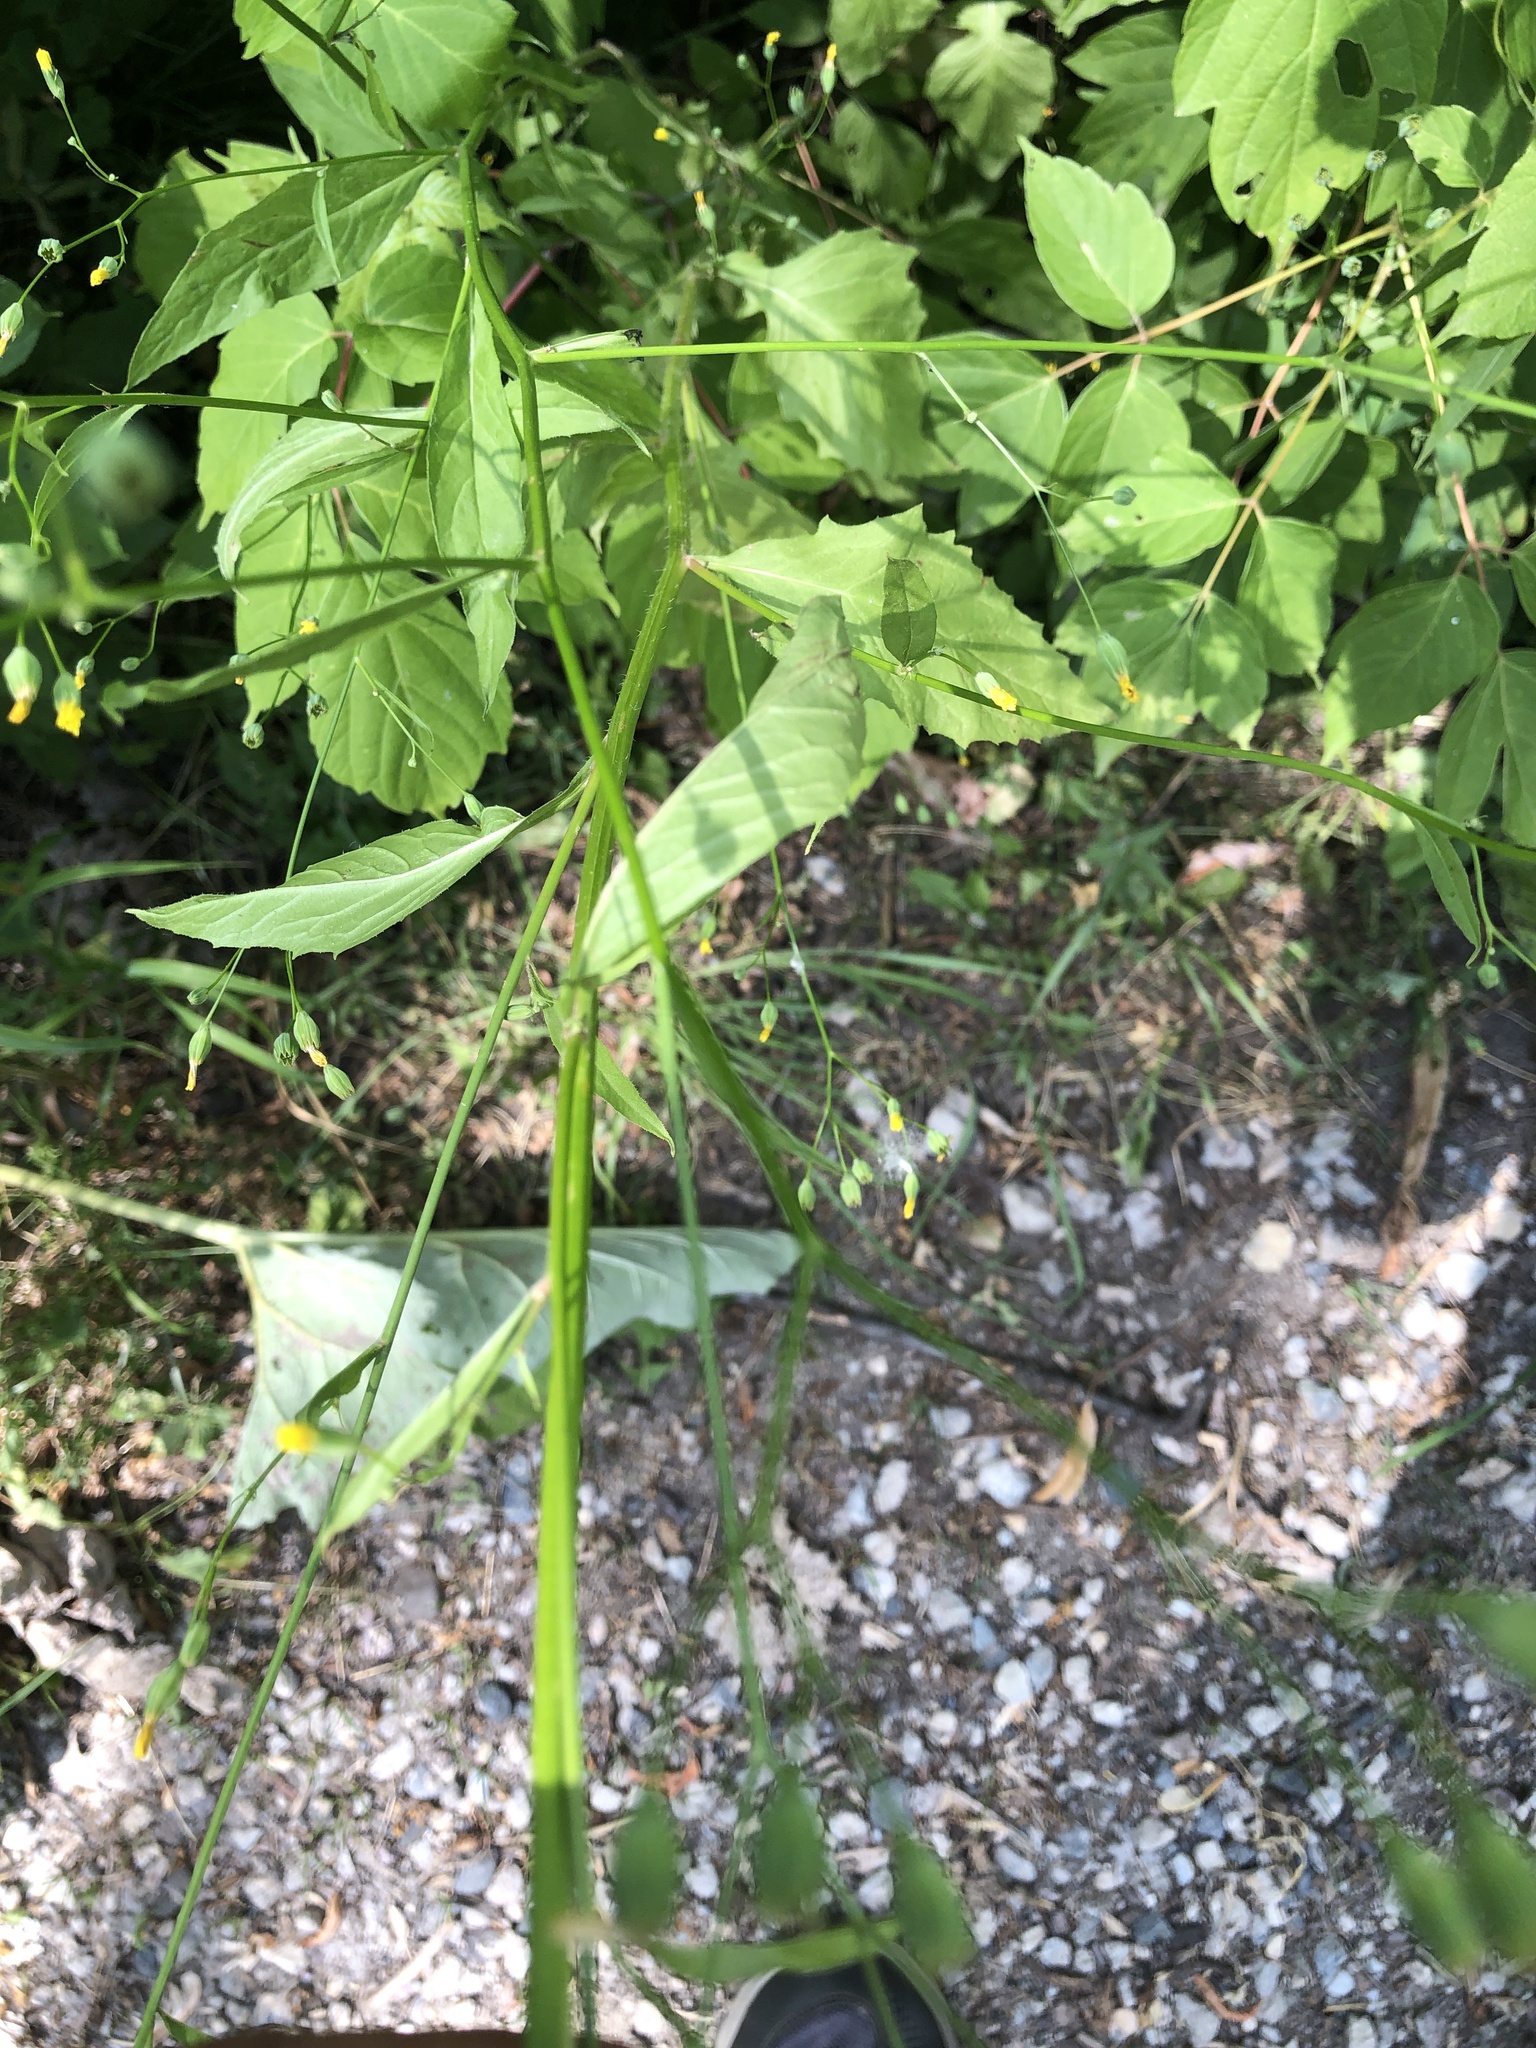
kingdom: Plantae
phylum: Tracheophyta
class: Magnoliopsida
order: Asterales
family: Asteraceae
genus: Lapsana
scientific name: Lapsana communis
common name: Nipplewort
